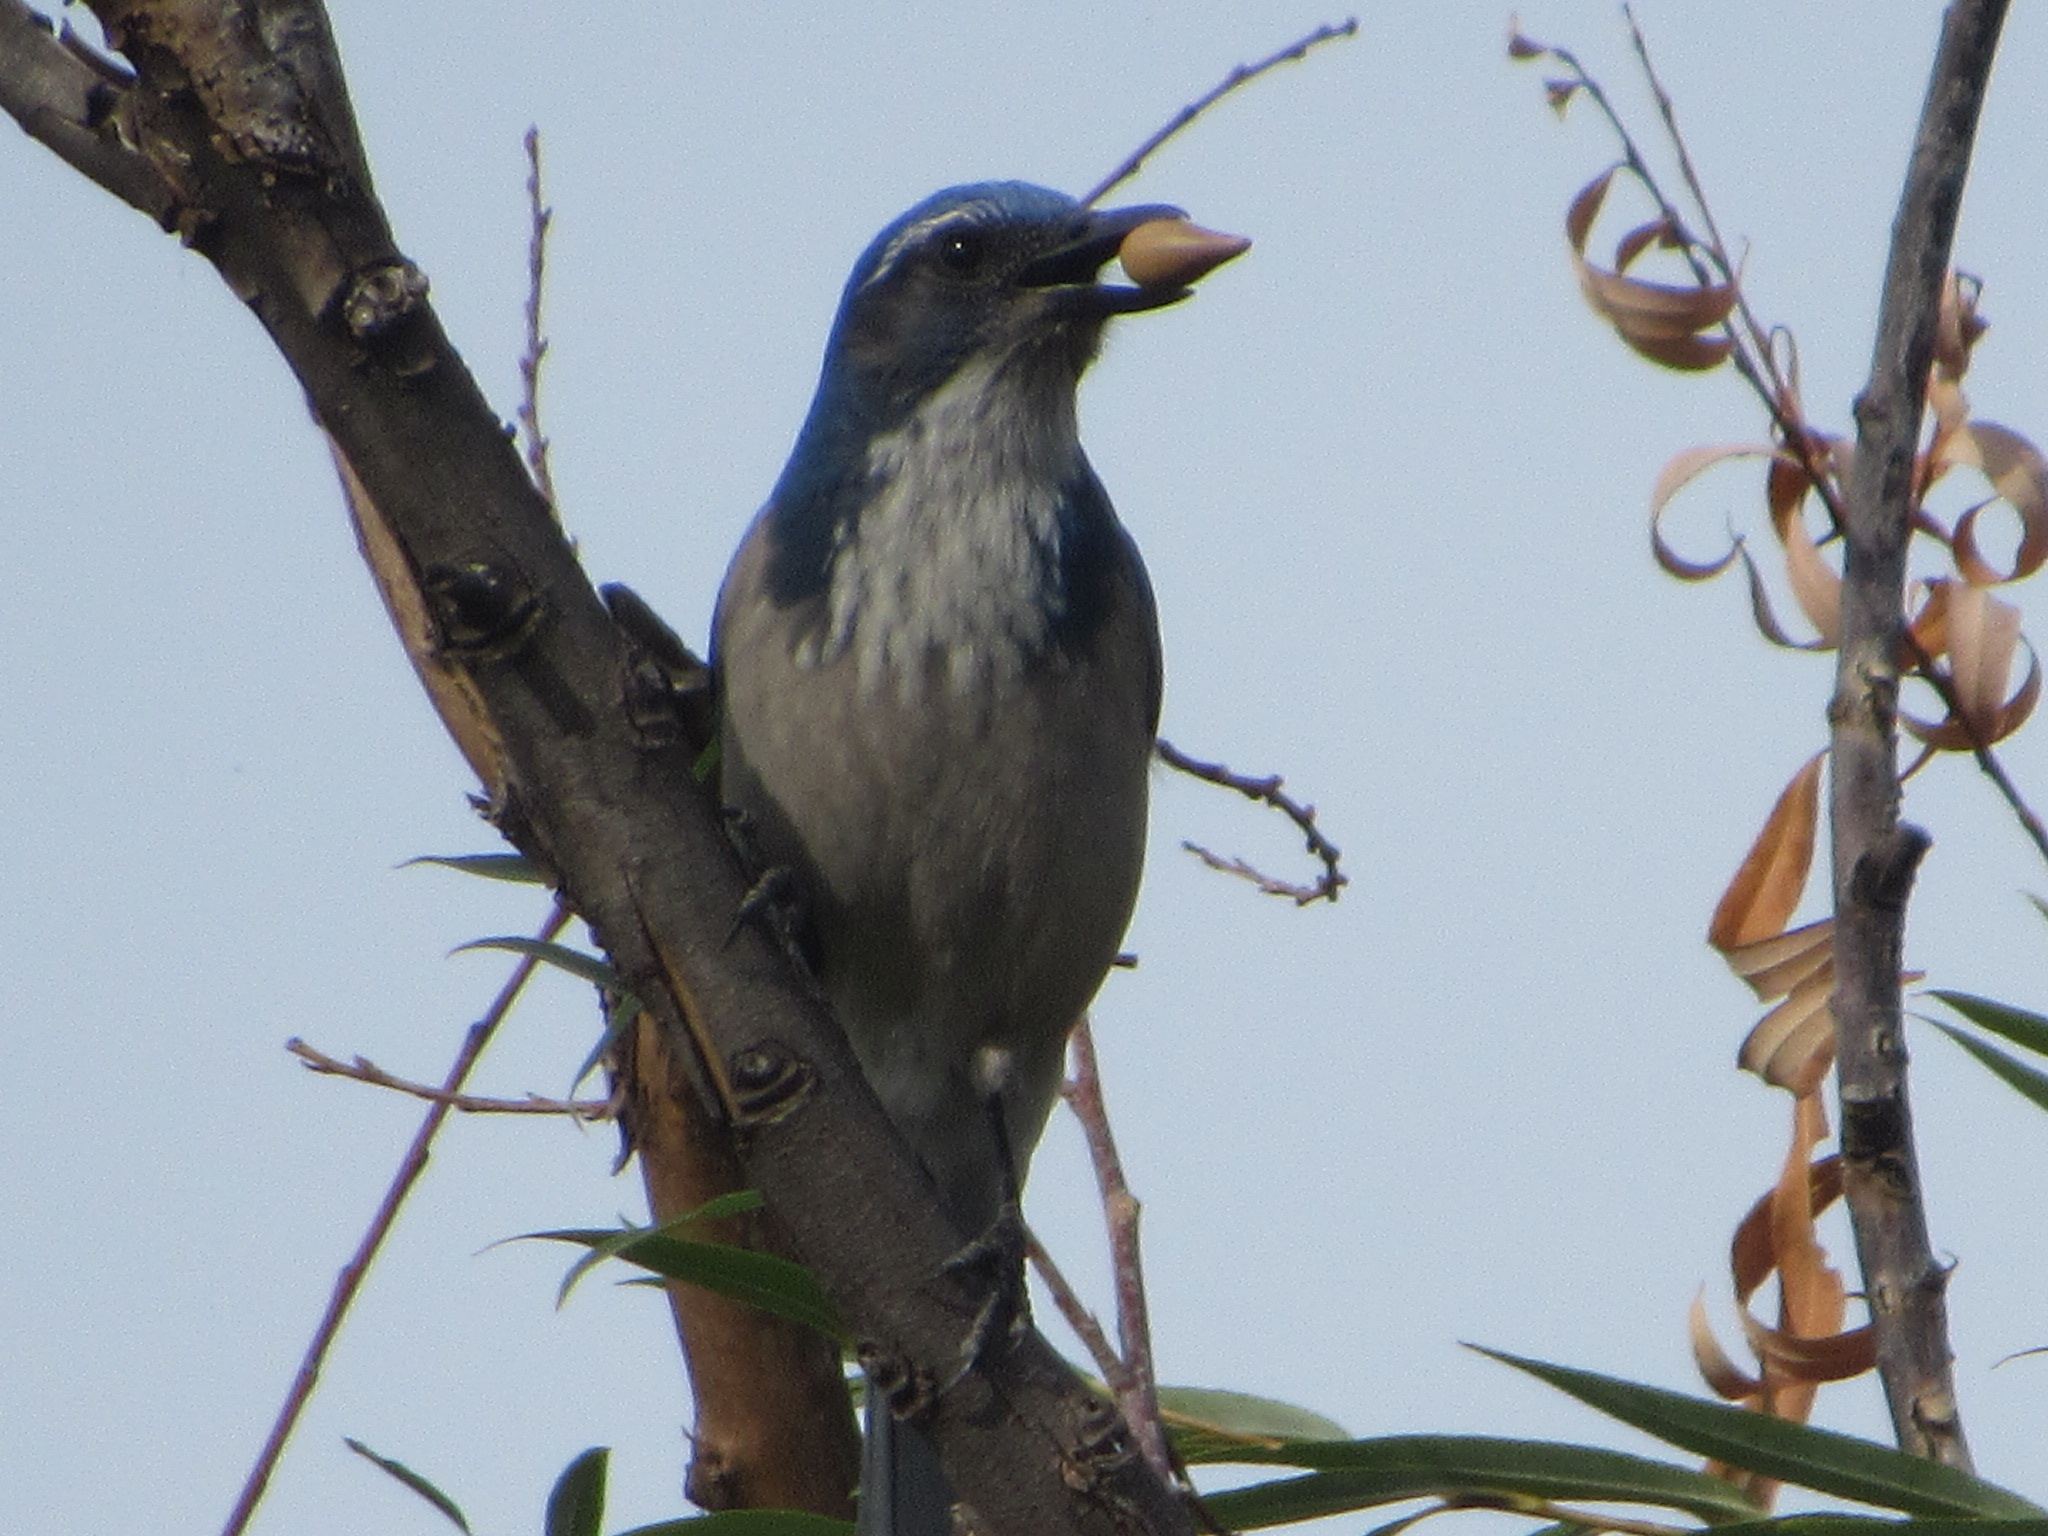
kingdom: Animalia
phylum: Chordata
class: Aves
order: Passeriformes
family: Corvidae
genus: Aphelocoma
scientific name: Aphelocoma californica
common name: California scrub-jay
